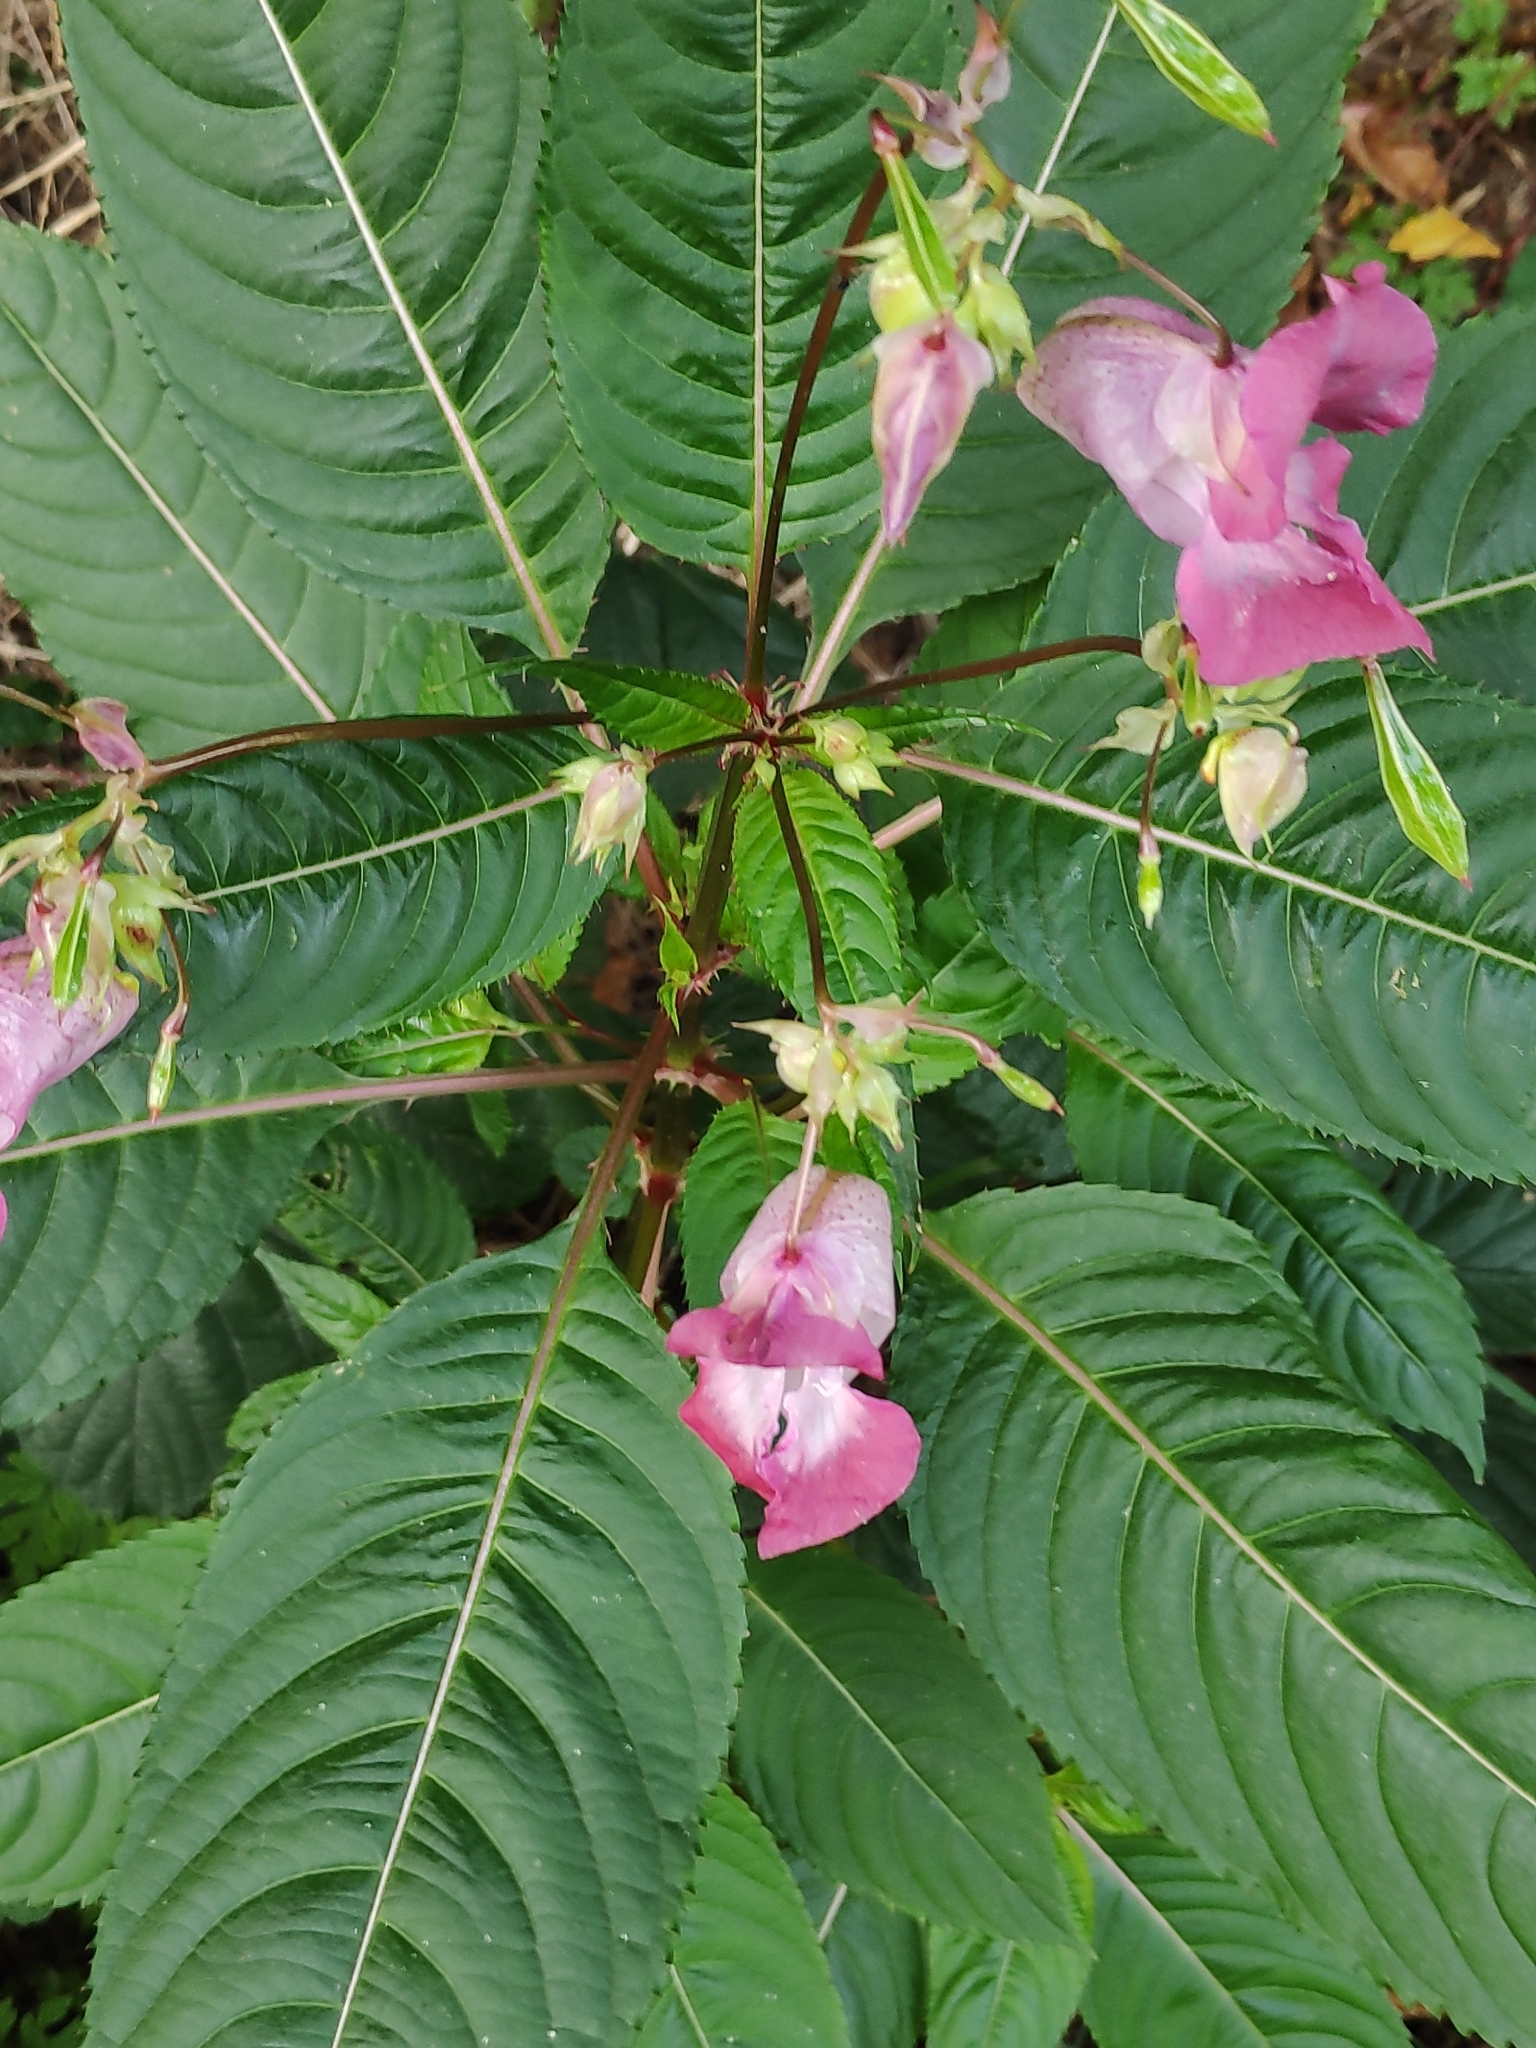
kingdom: Plantae
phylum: Tracheophyta
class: Magnoliopsida
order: Ericales
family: Balsaminaceae
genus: Impatiens
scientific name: Impatiens glandulifera
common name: Himalayan balsam
